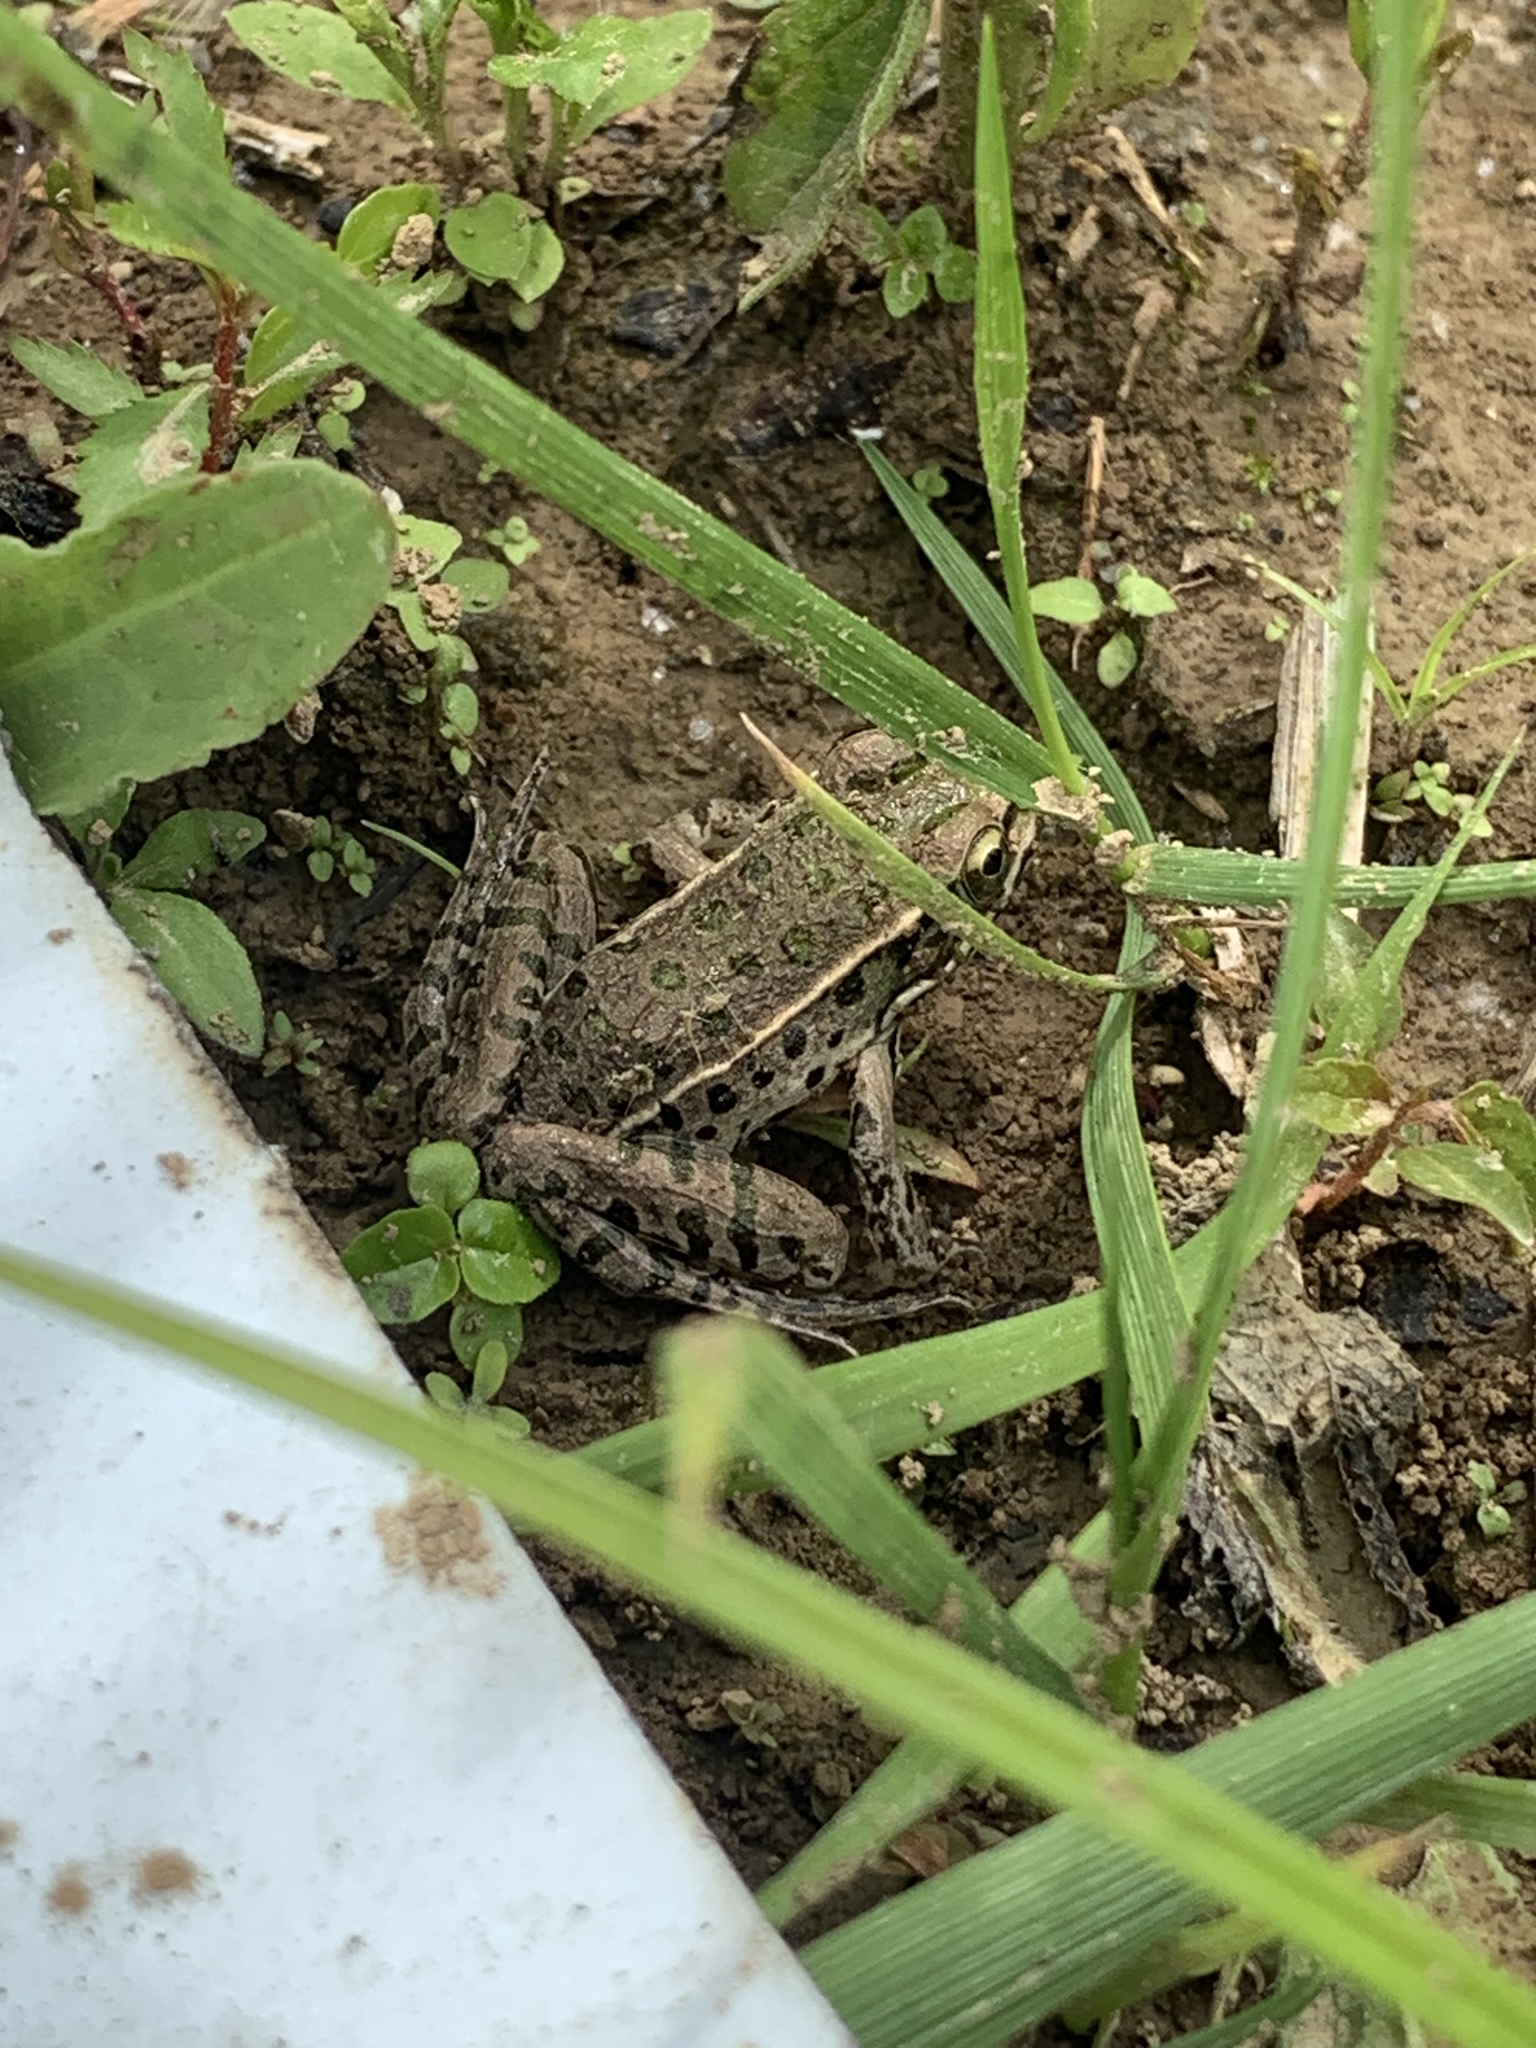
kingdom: Animalia
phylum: Chordata
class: Amphibia
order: Anura
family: Ranidae
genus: Lithobates
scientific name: Lithobates sphenocephalus
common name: Southern leopard frog
